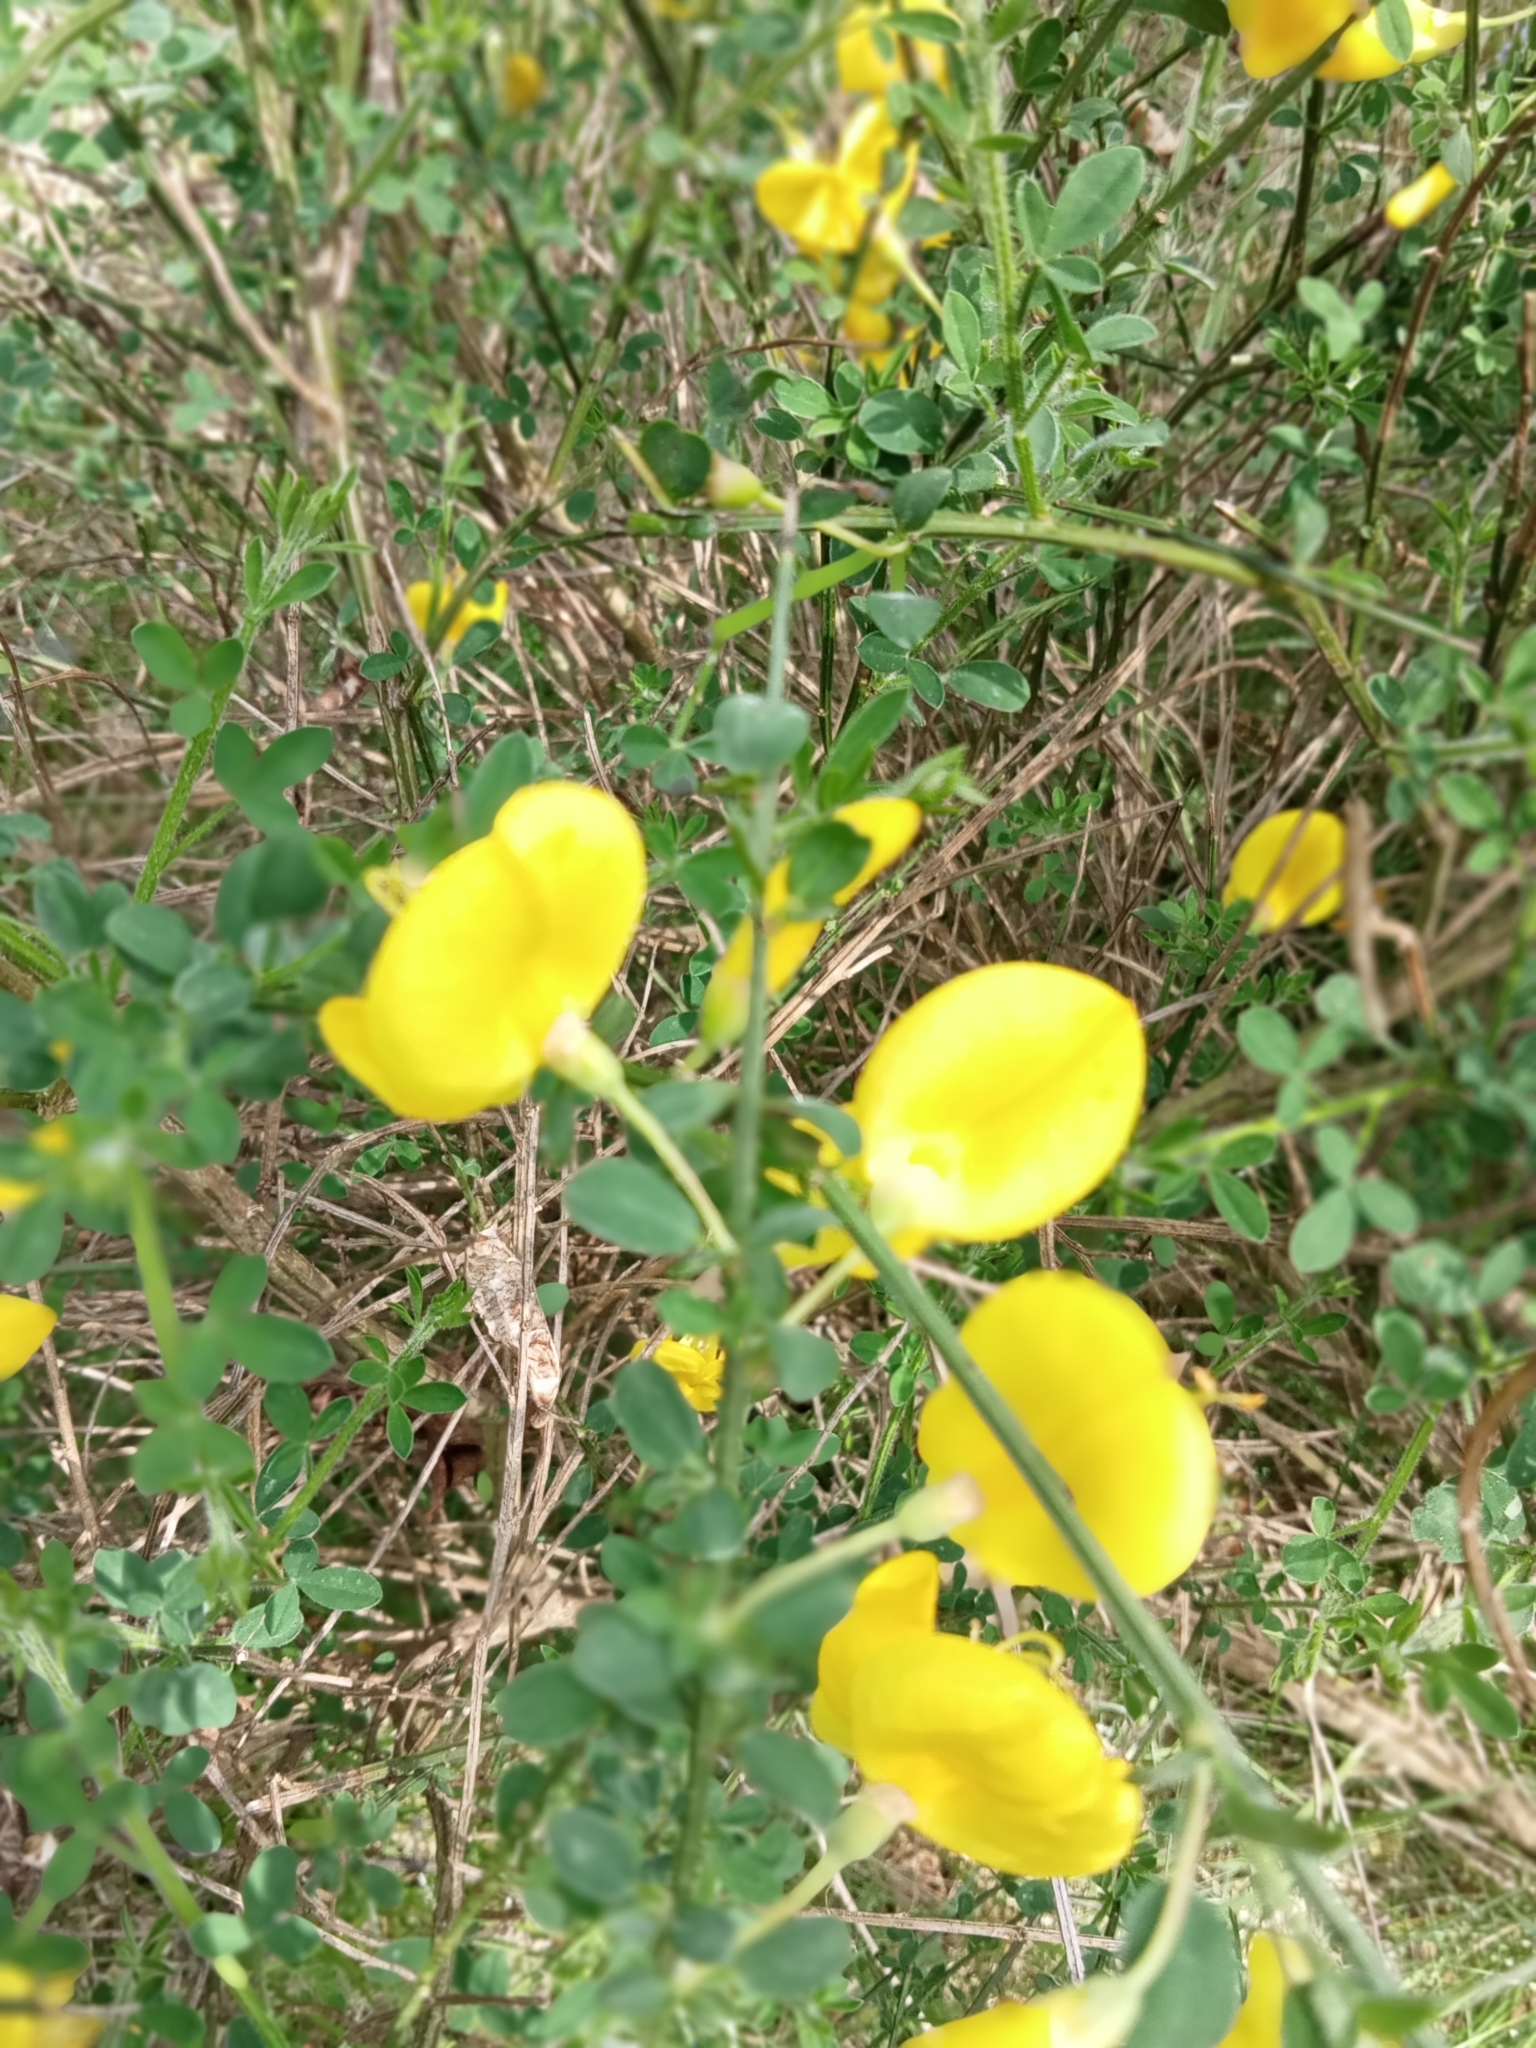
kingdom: Plantae
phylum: Tracheophyta
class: Magnoliopsida
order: Fabales
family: Fabaceae
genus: Cytisus
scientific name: Cytisus scoparius
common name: Scotch broom
